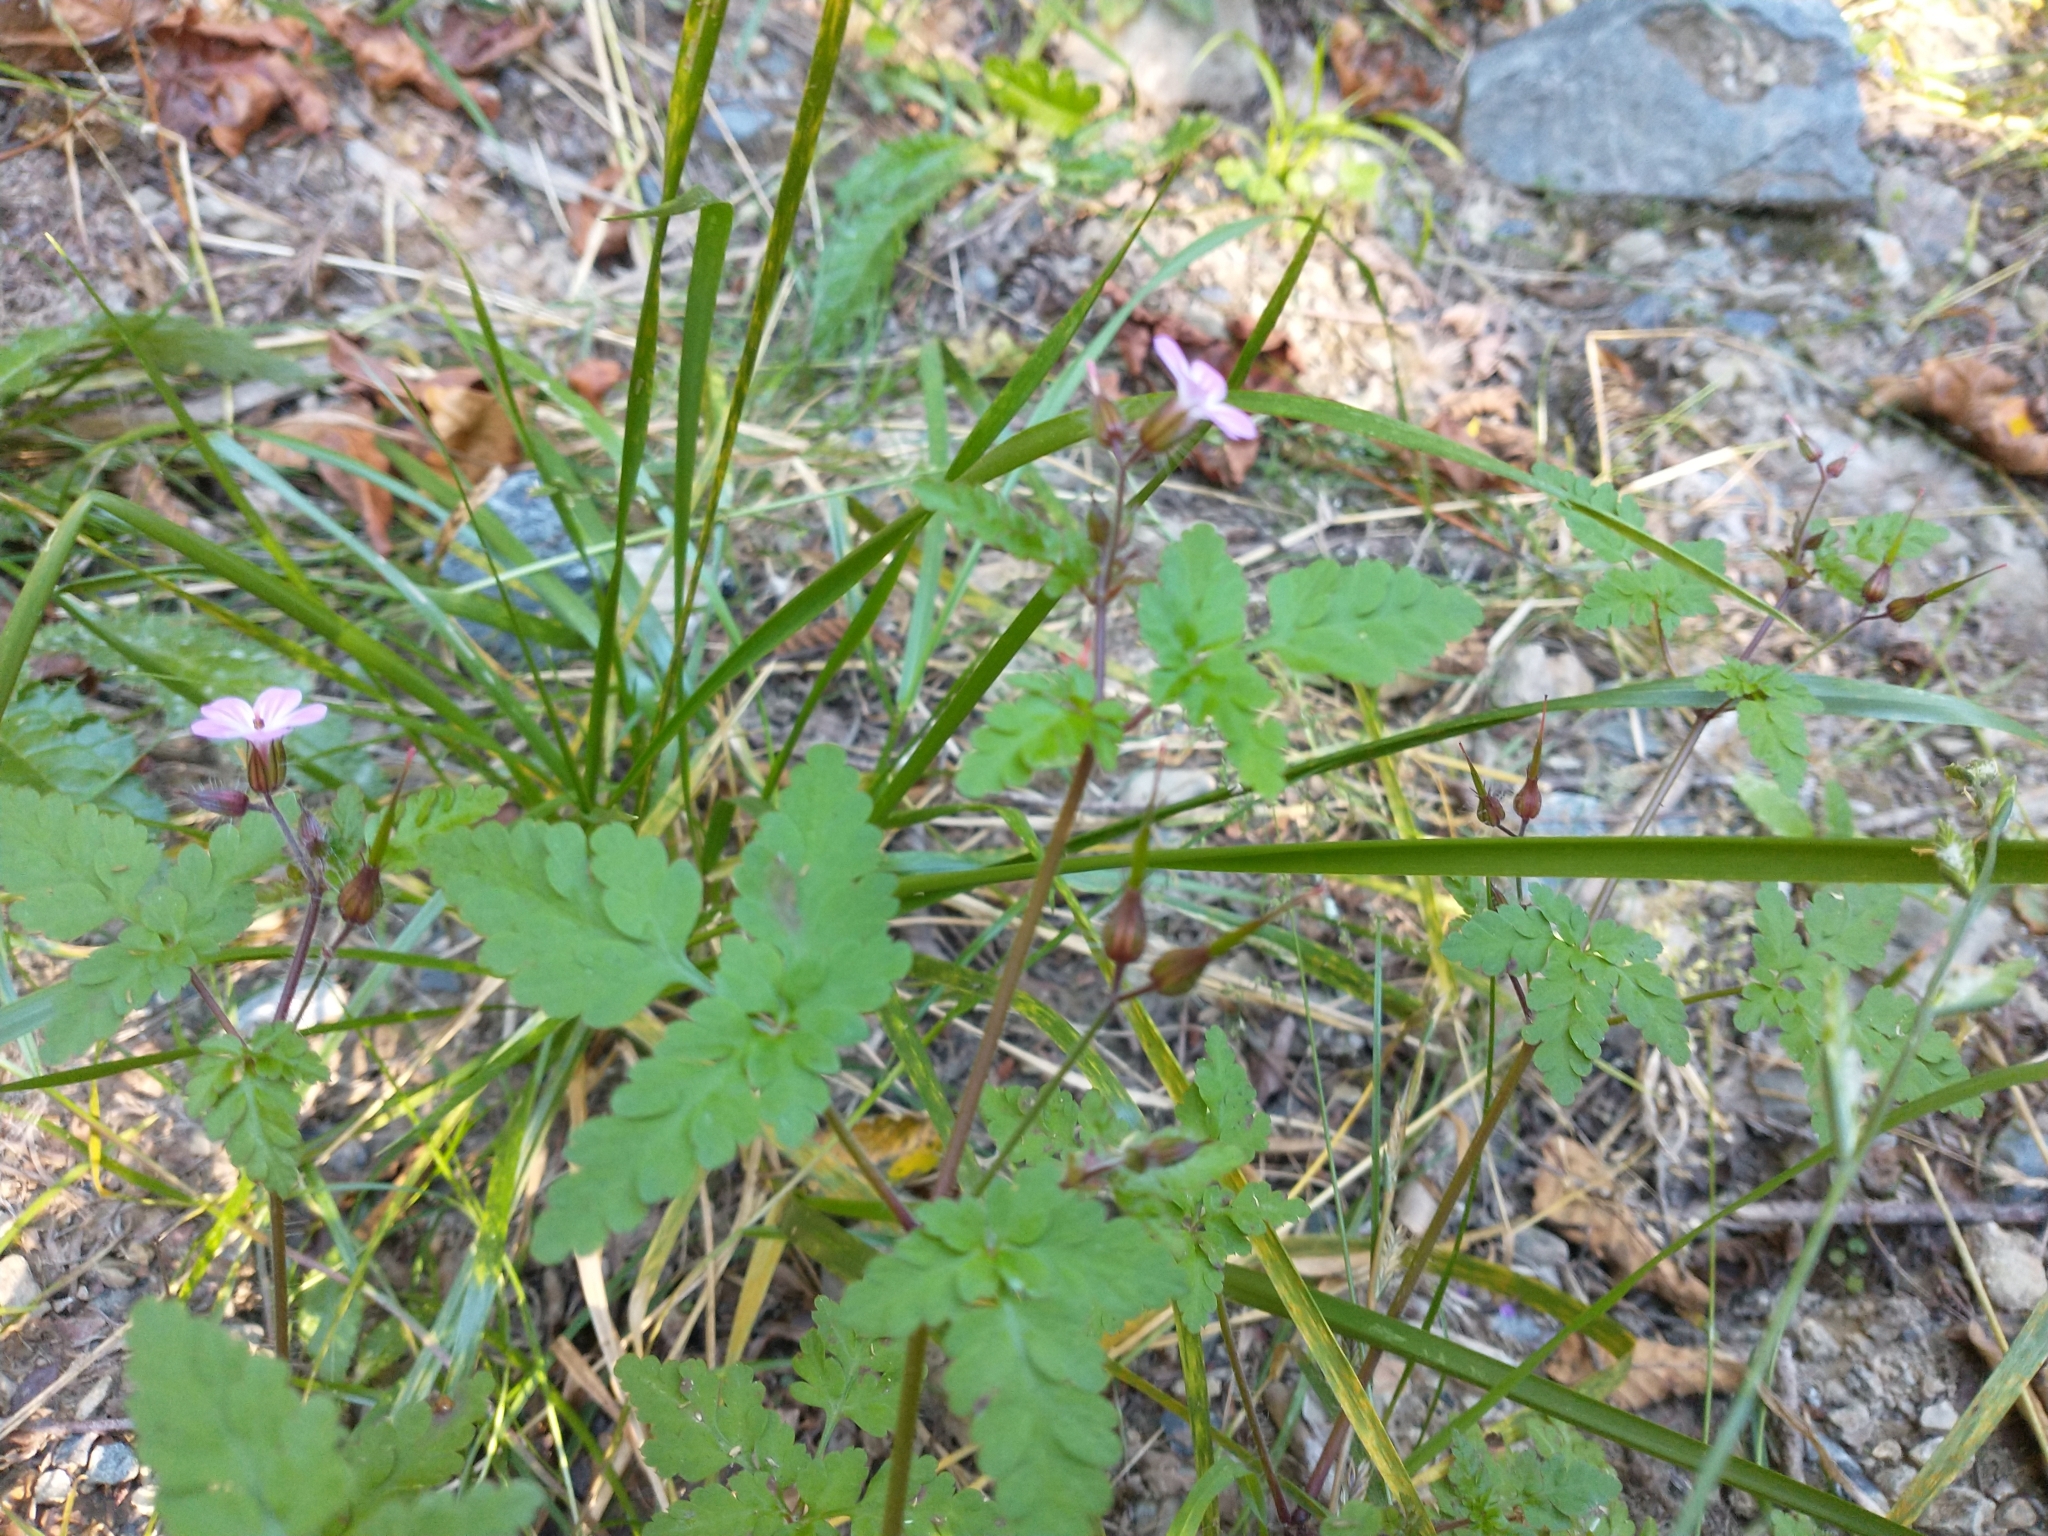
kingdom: Plantae
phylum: Tracheophyta
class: Magnoliopsida
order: Geraniales
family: Geraniaceae
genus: Geranium
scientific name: Geranium robertianum
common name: Herb-robert
